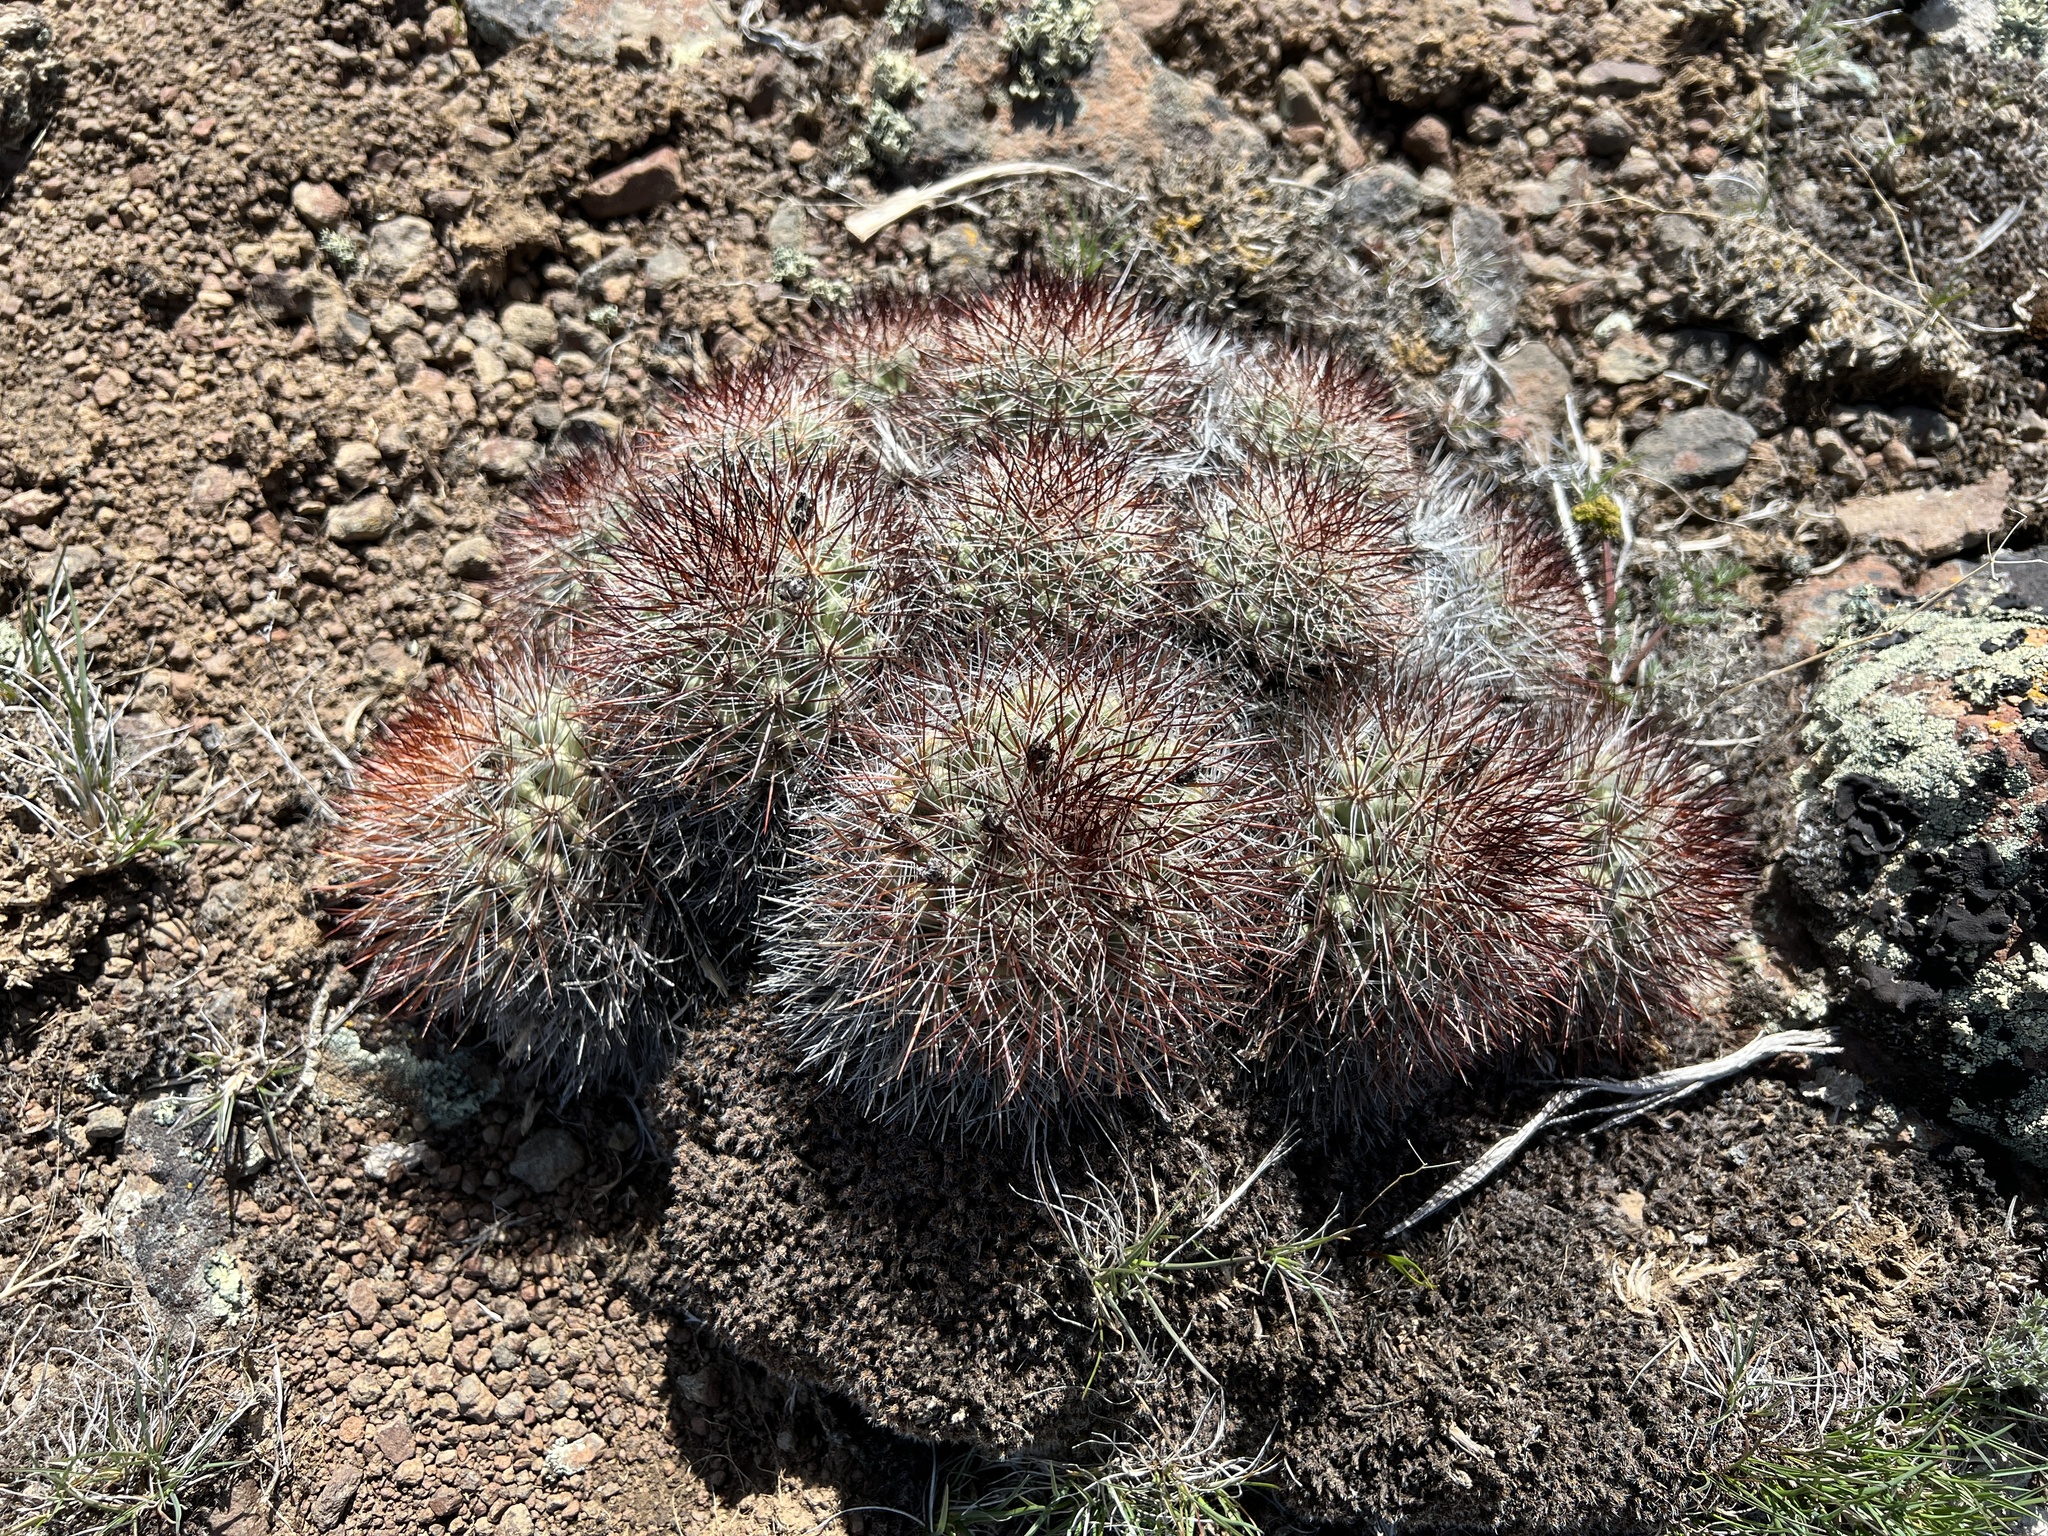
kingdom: Plantae
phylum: Tracheophyta
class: Magnoliopsida
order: Caryophyllales
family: Cactaceae
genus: Pediocactus
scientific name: Pediocactus nigrispinus
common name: Simpson's hedgehog cactus
